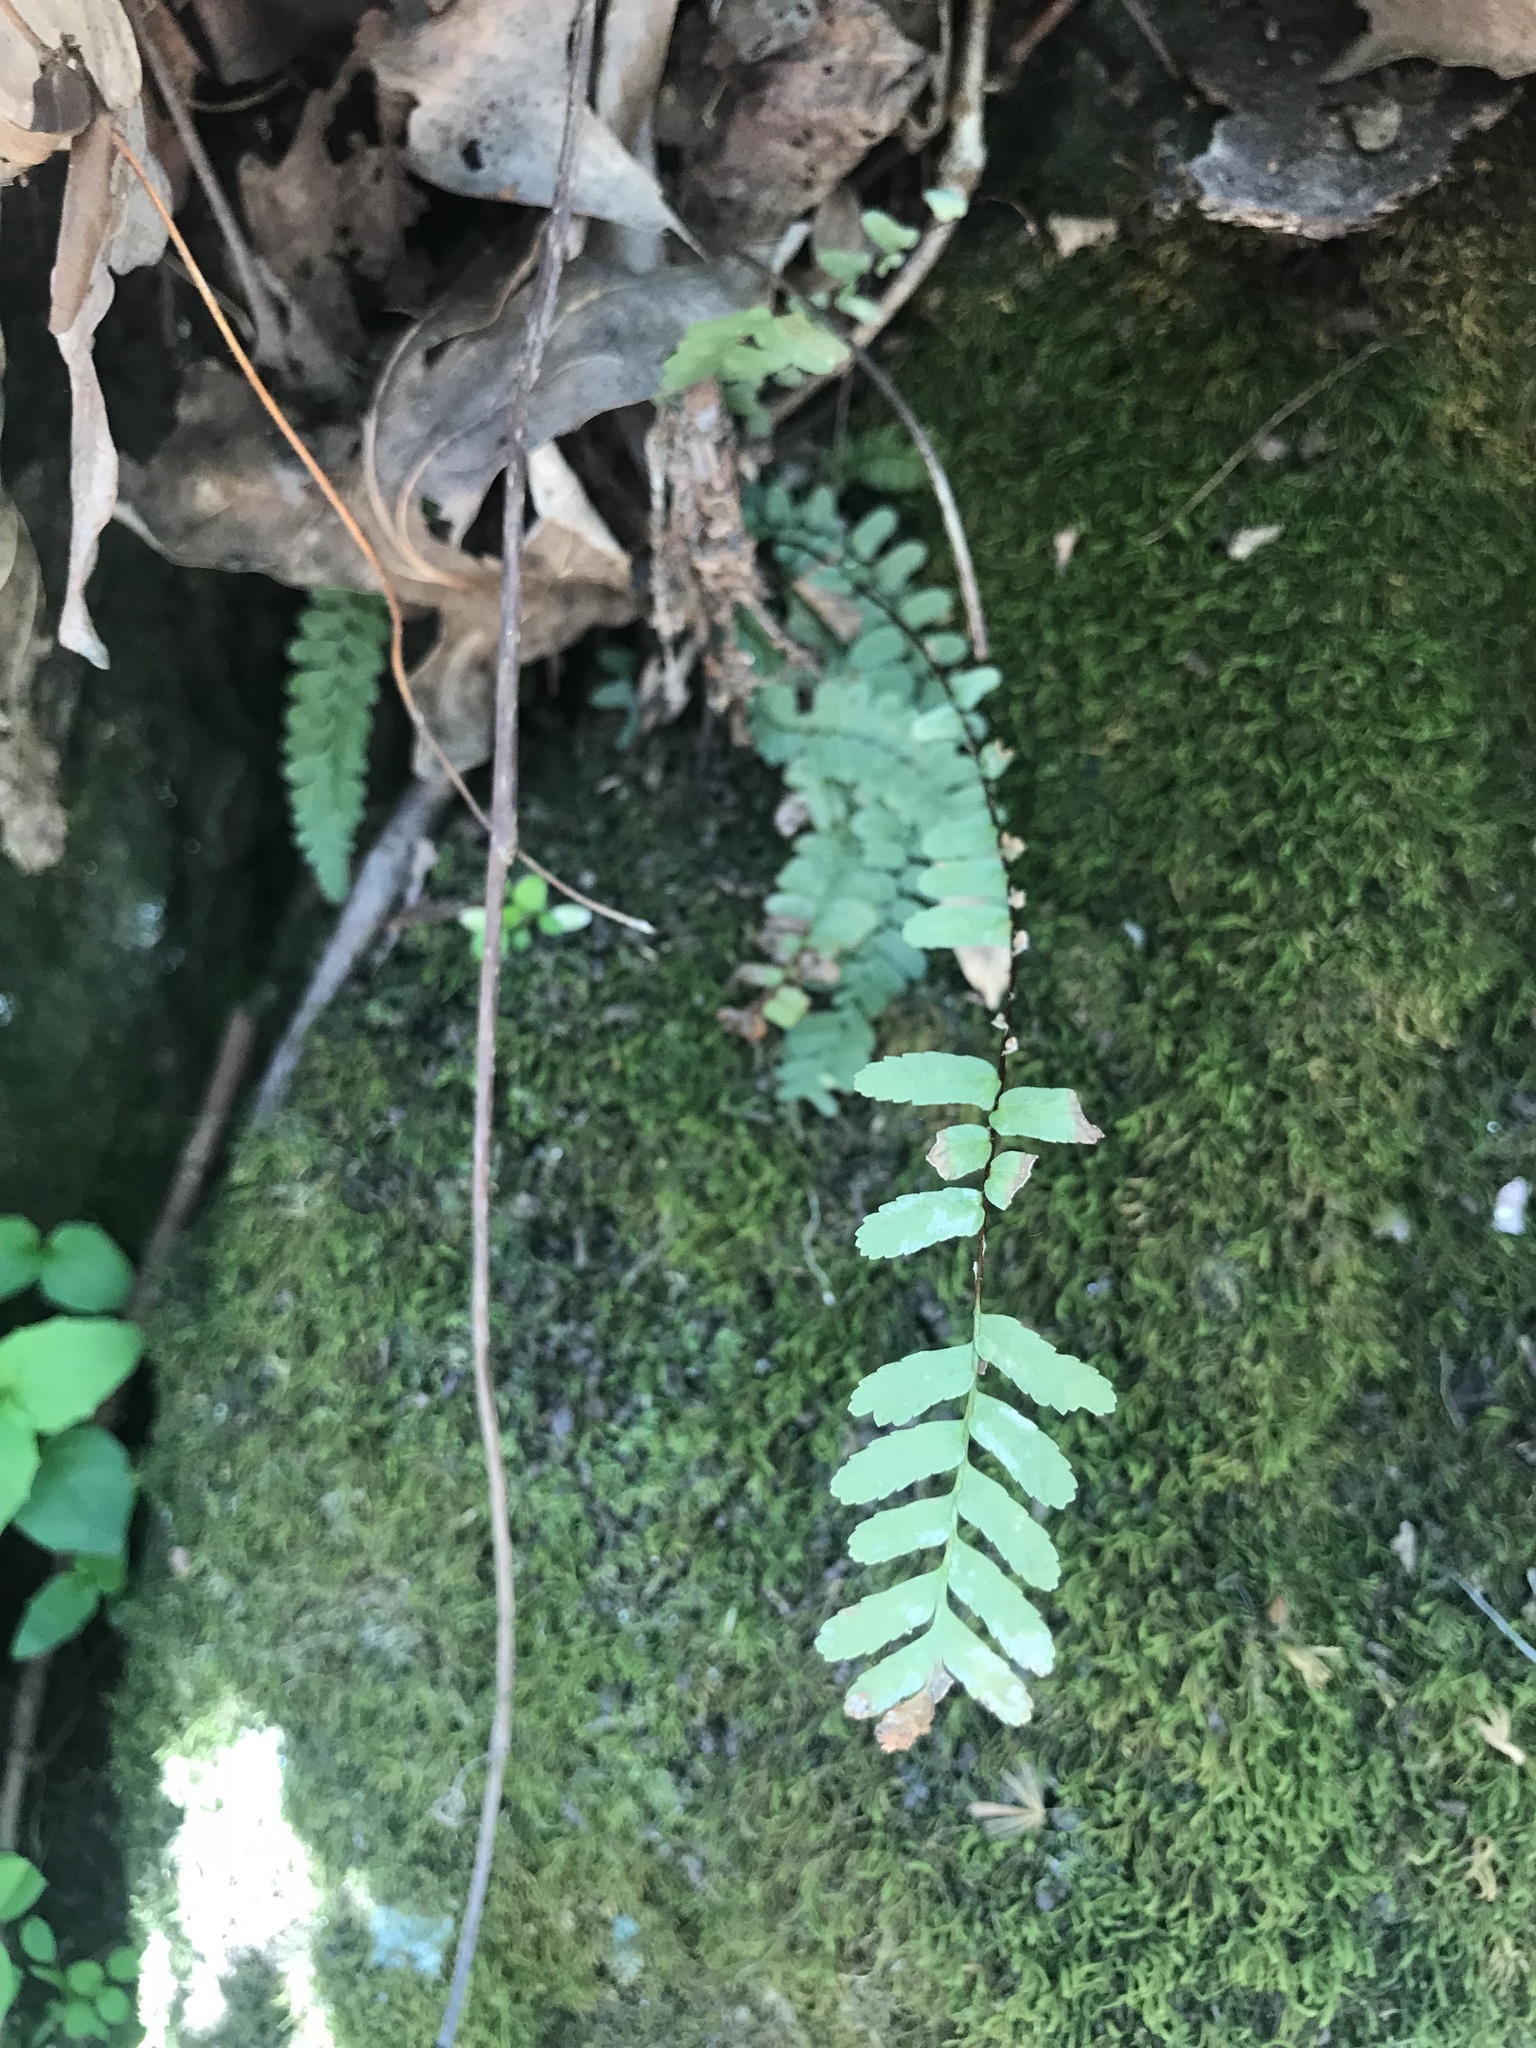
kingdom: Plantae
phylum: Tracheophyta
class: Polypodiopsida
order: Polypodiales
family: Aspleniaceae
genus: Asplenium
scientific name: Asplenium platyneuron
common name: Ebony spleenwort
